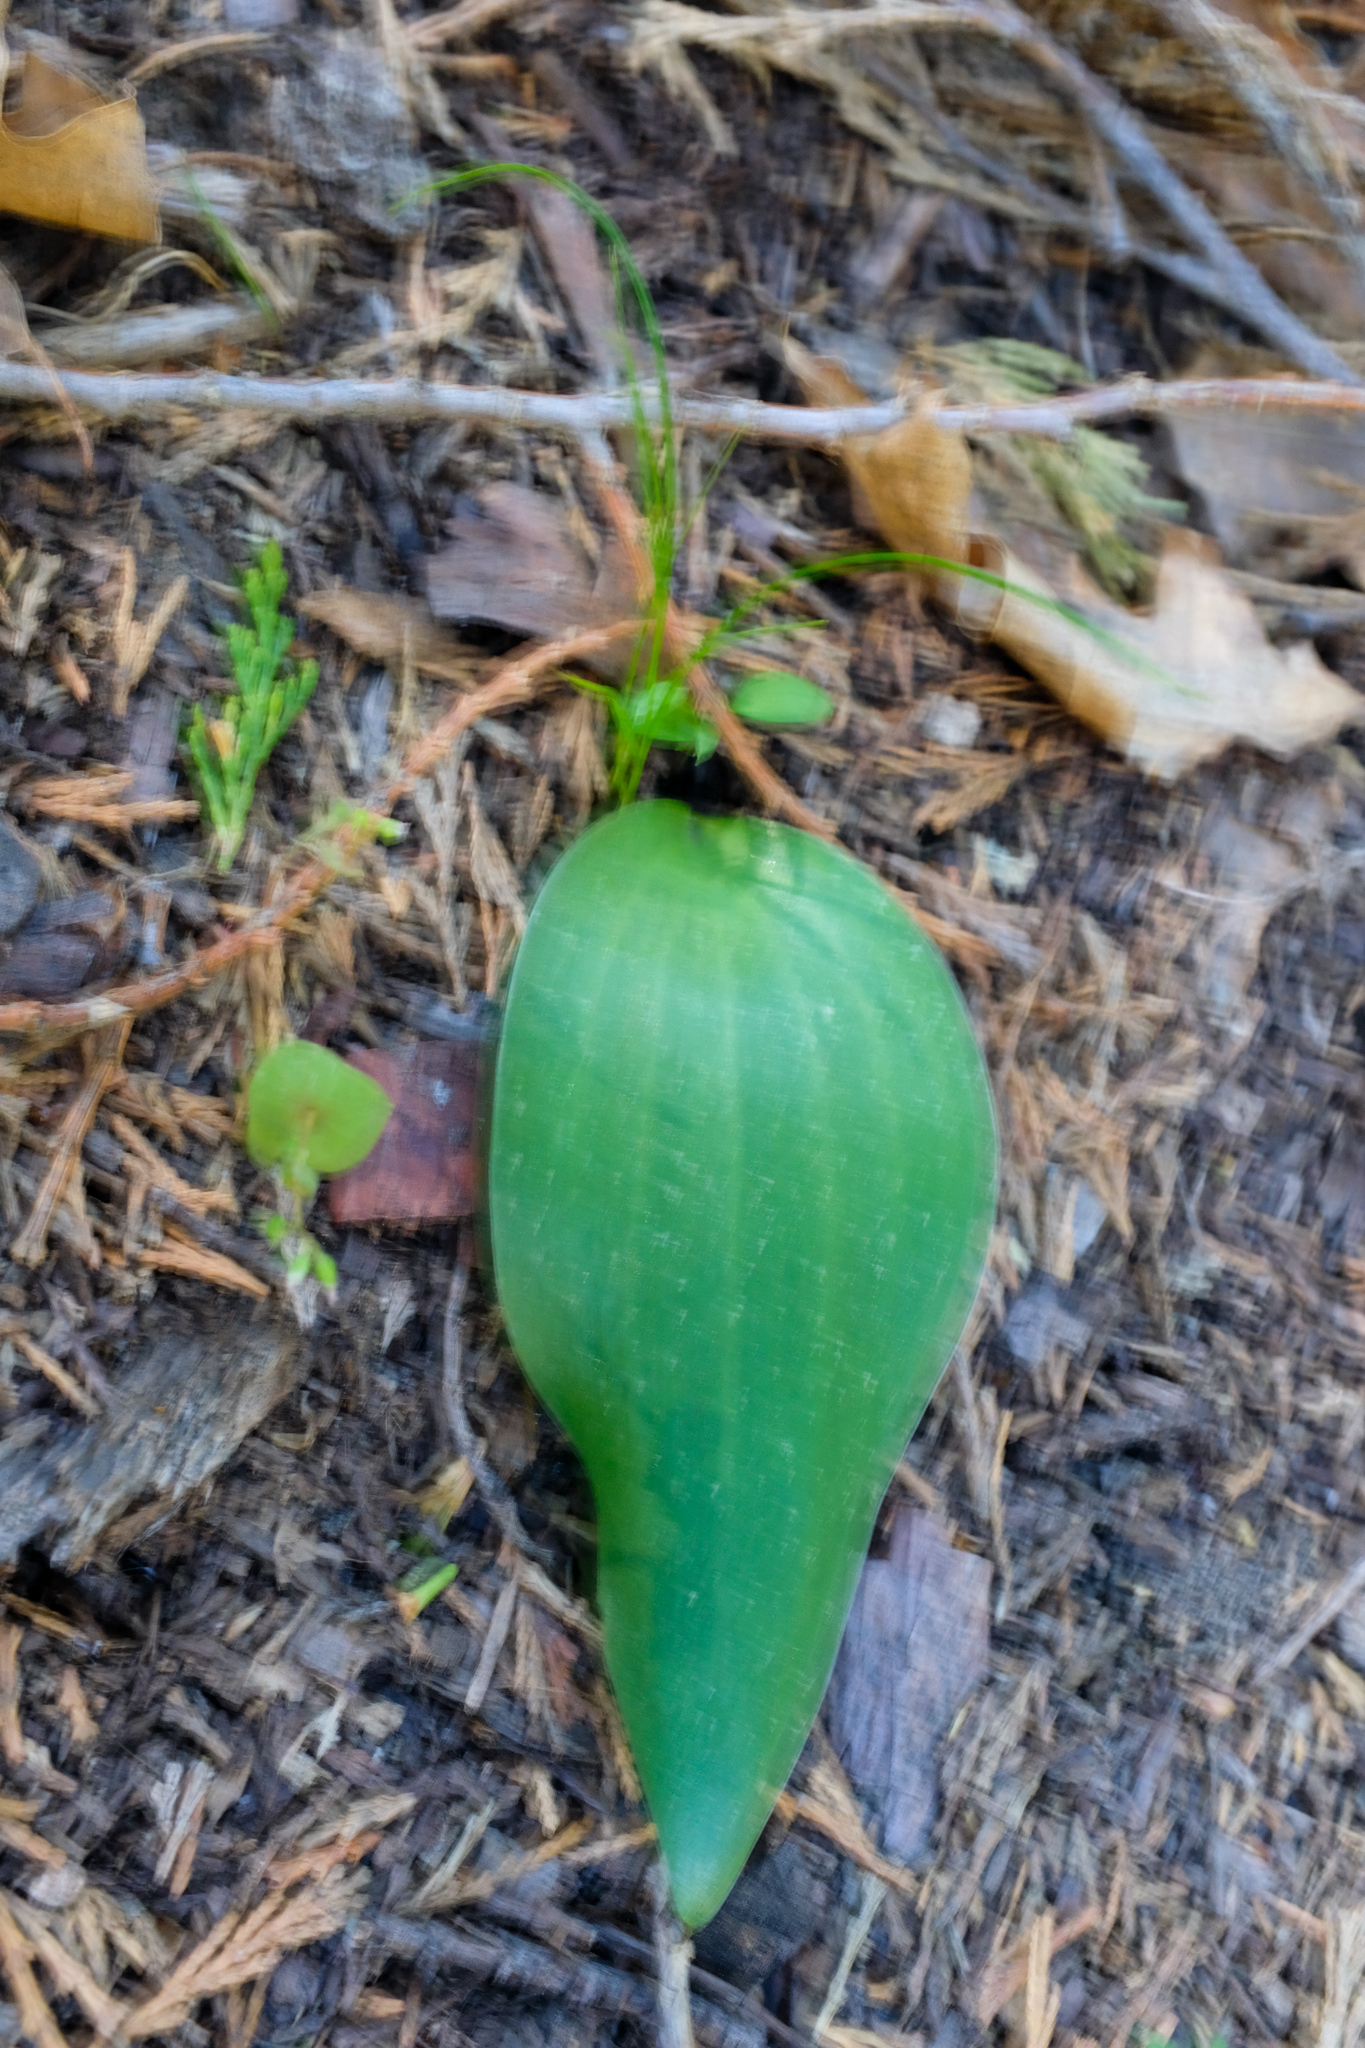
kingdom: Plantae
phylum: Tracheophyta
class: Liliopsida
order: Liliales
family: Liliaceae
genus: Fritillaria
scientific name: Fritillaria brandegeei
